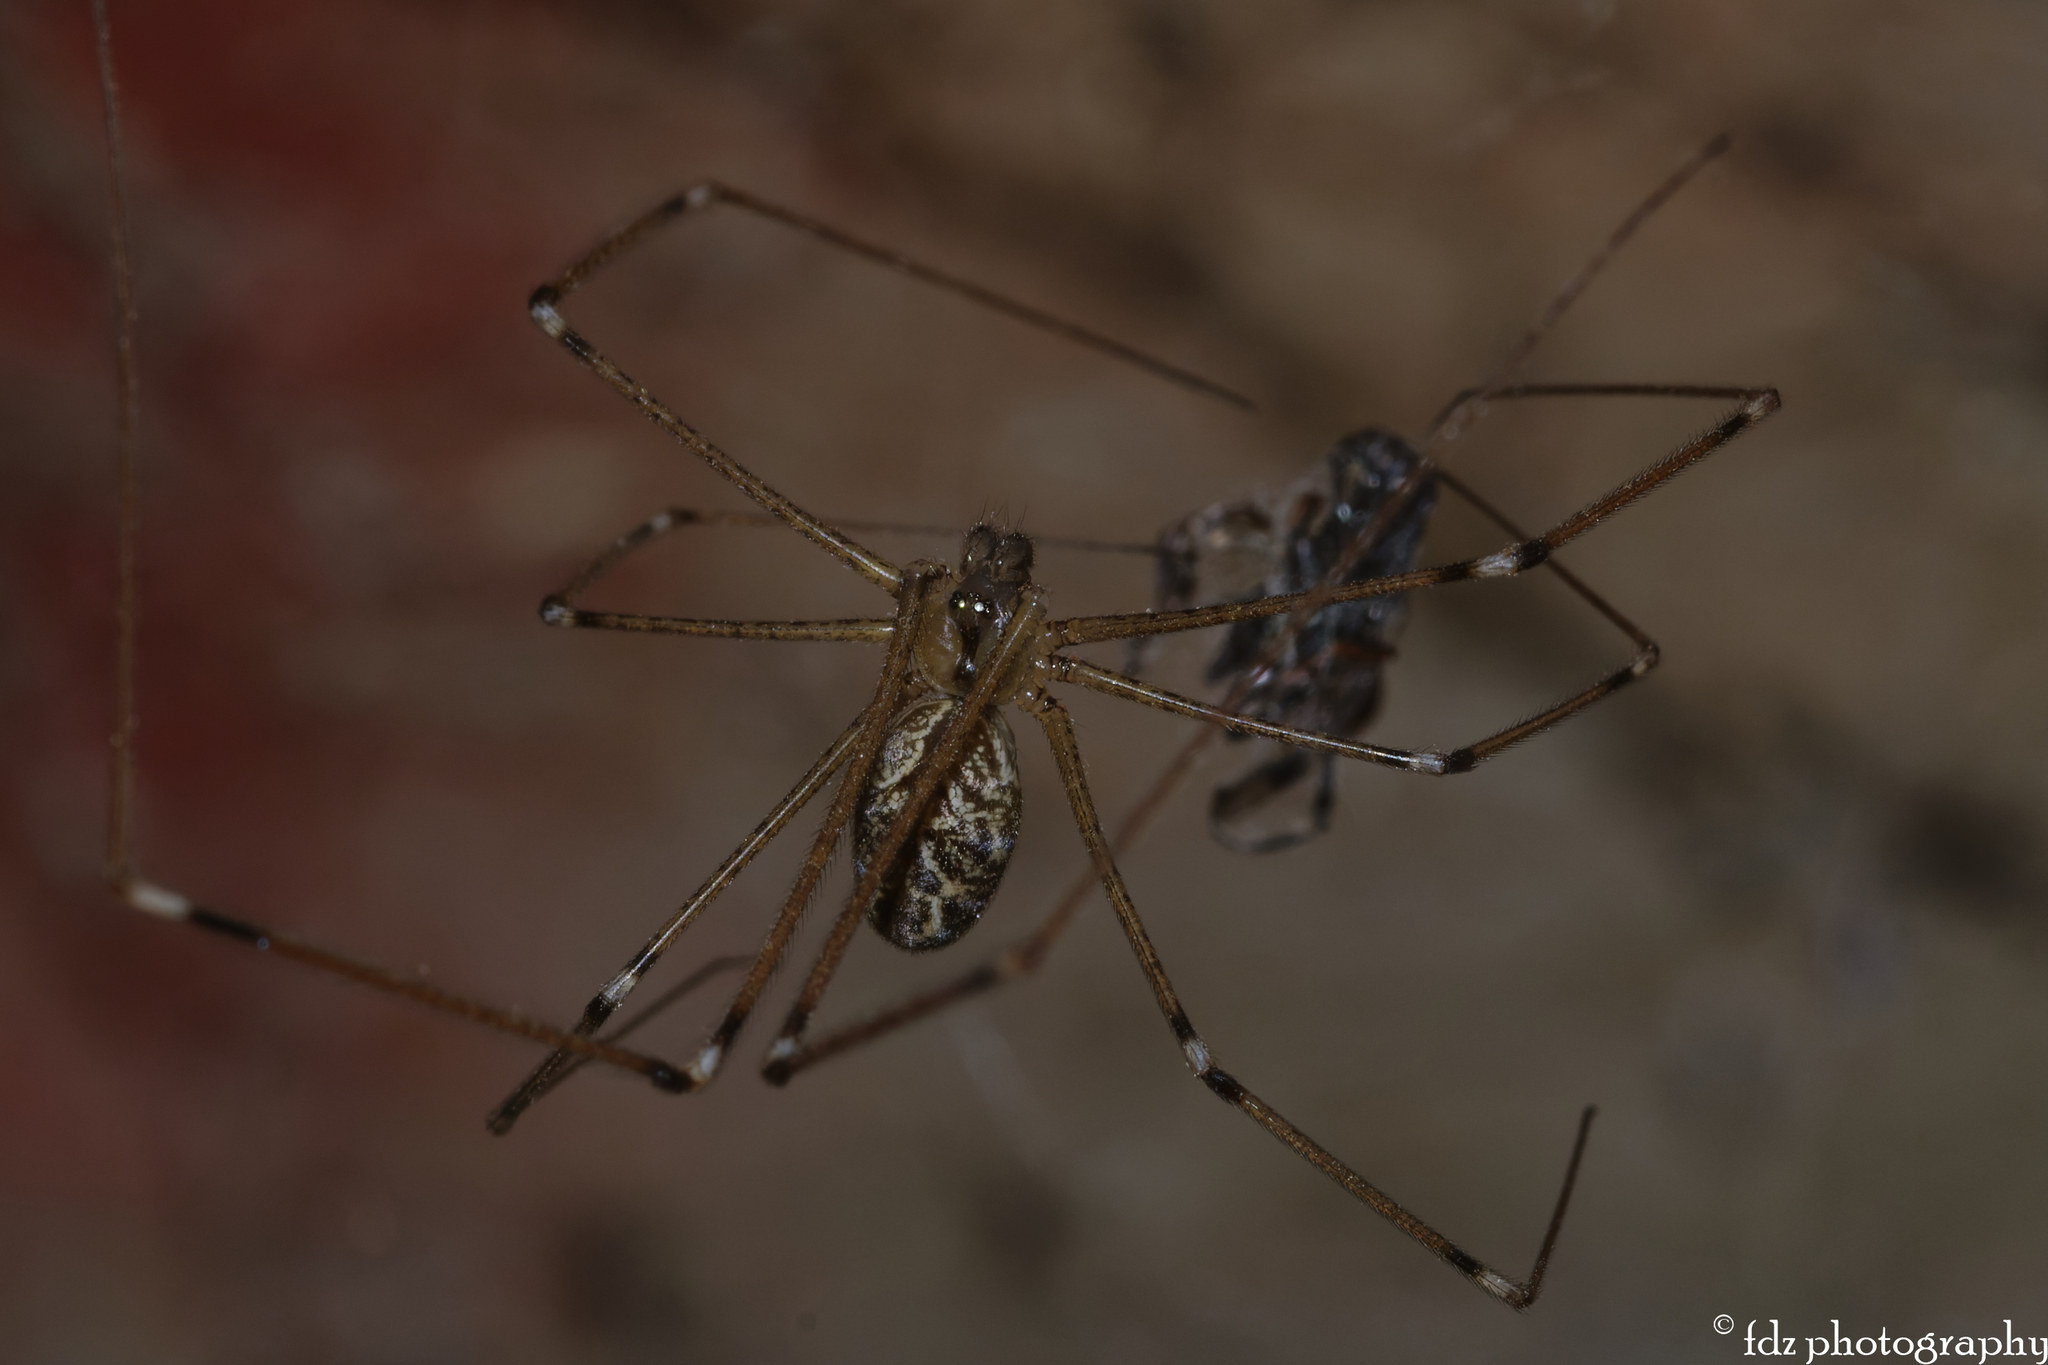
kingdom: Animalia
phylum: Arthropoda
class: Arachnida
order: Araneae
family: Pholcidae
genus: Holocnemus
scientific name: Holocnemus pluchei
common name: Marbled cellar spider
